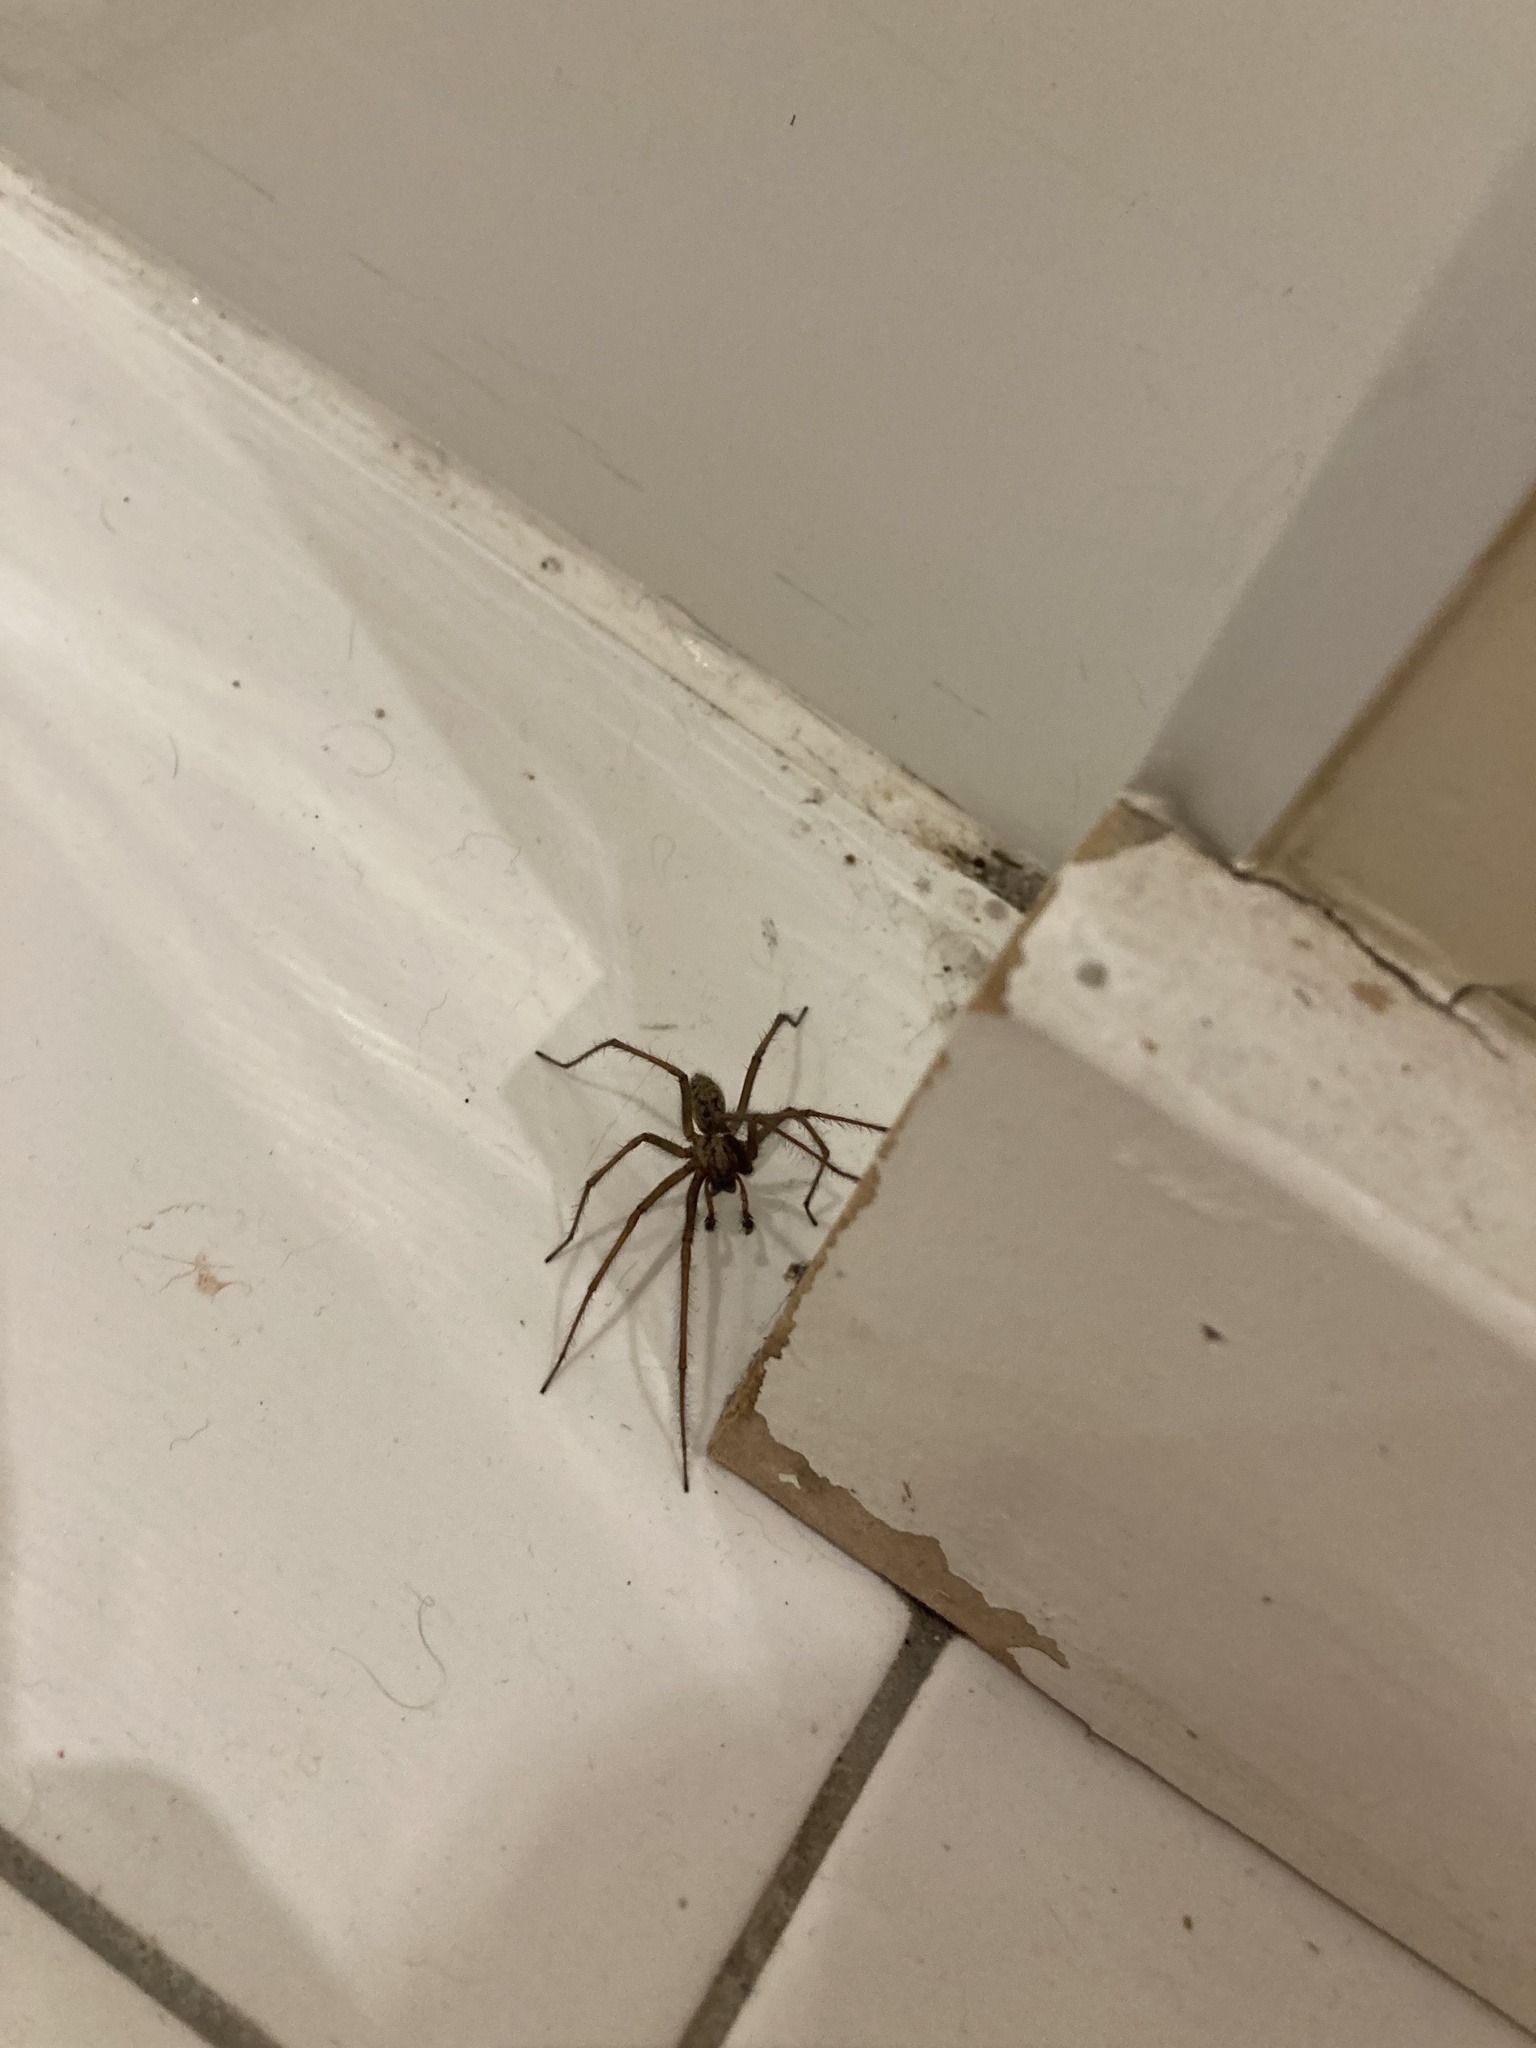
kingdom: Animalia
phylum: Arthropoda
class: Arachnida
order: Araneae
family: Agelenidae
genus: Eratigena
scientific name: Eratigena duellica
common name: Giant house spider
